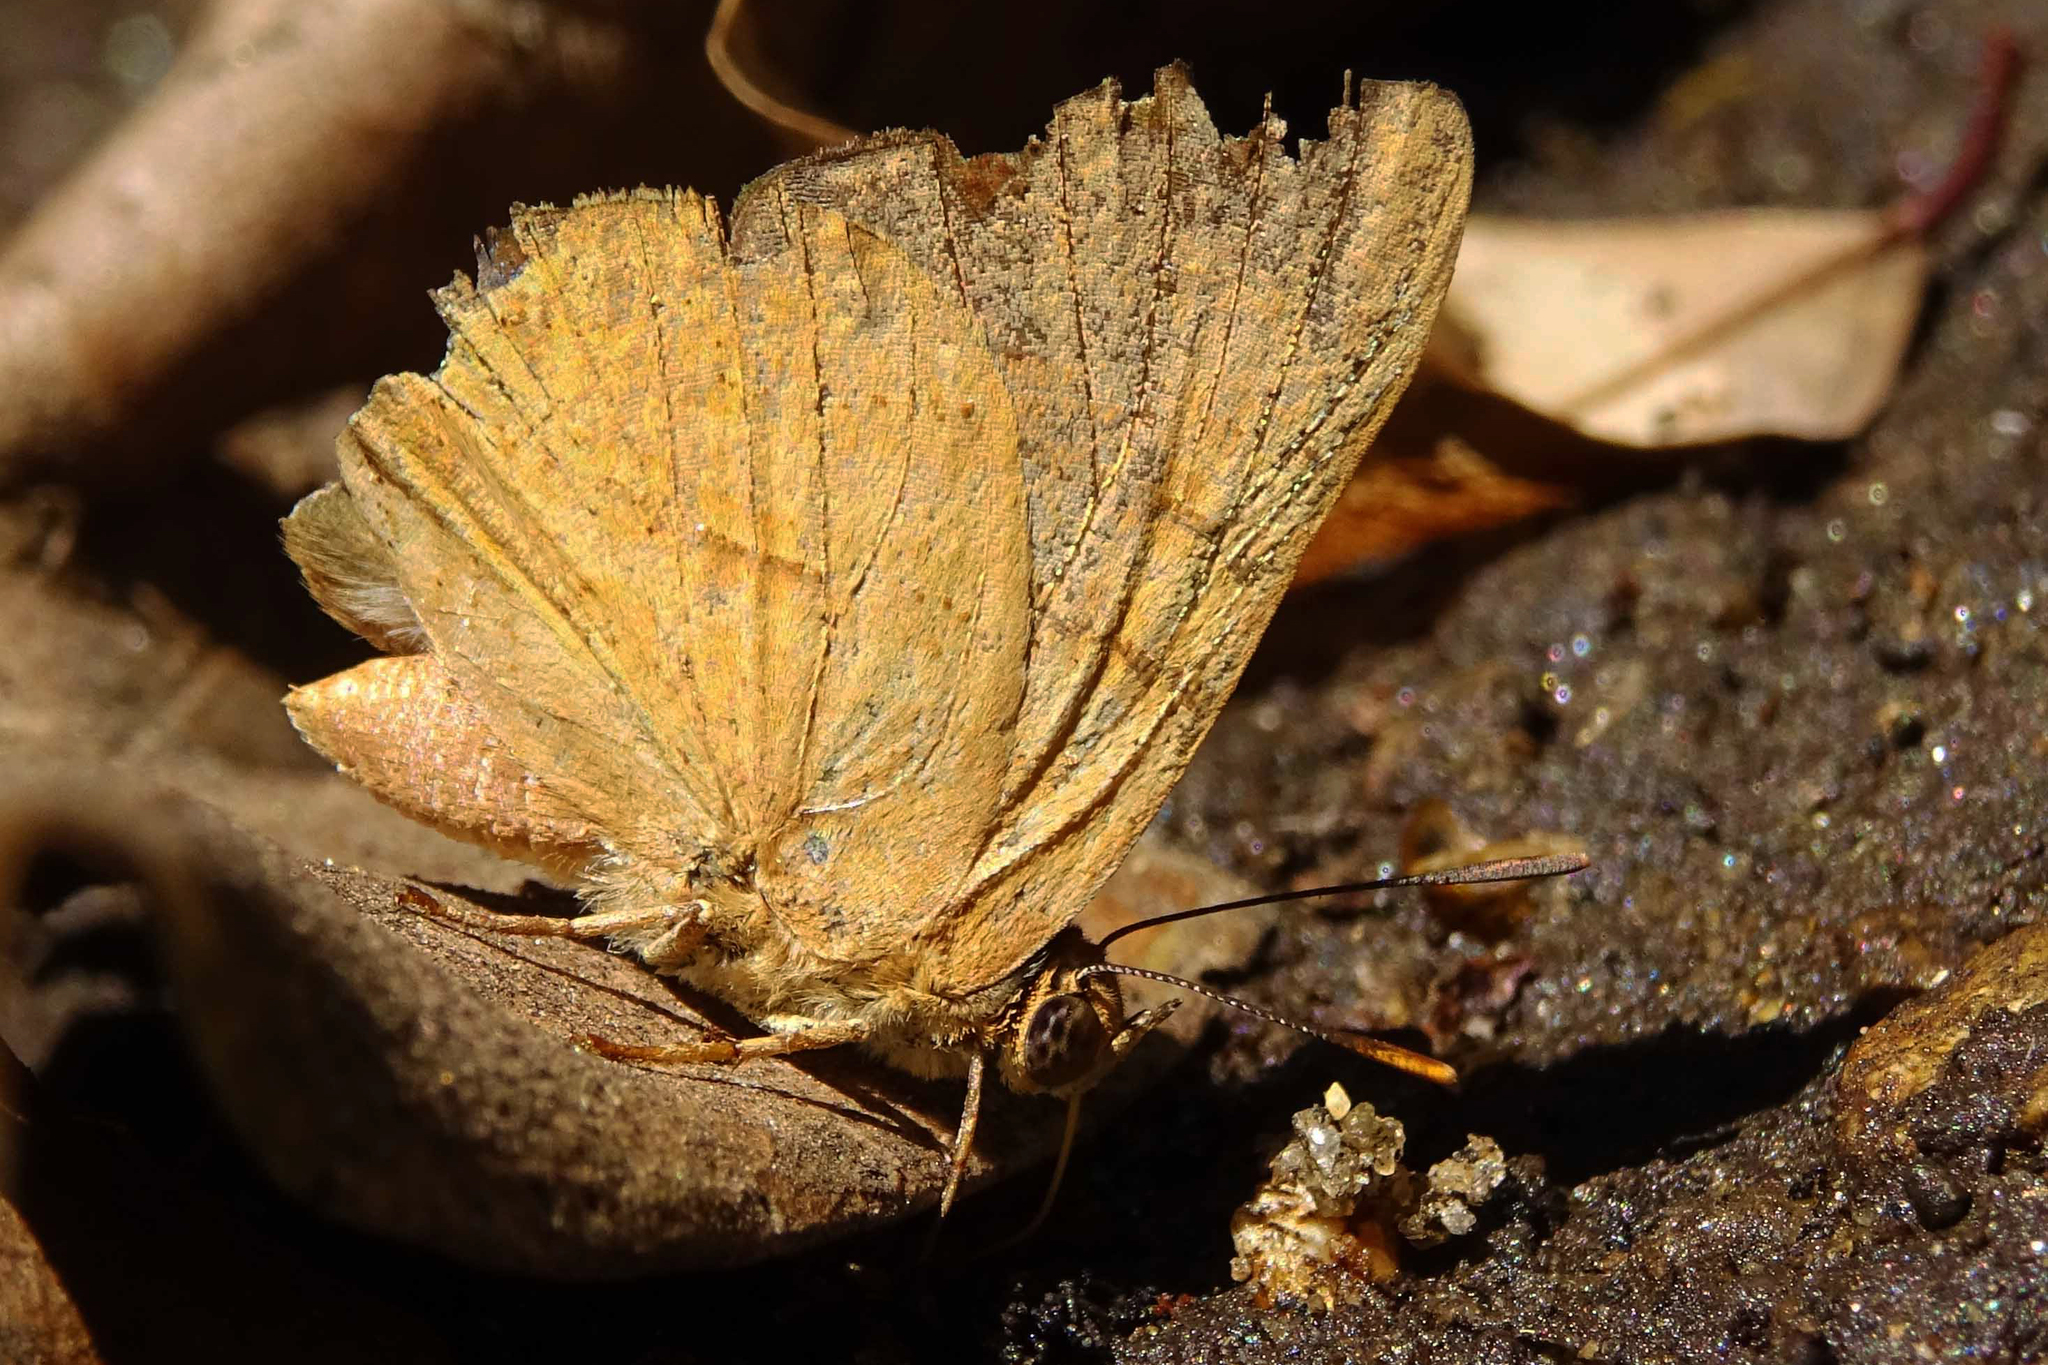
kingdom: Animalia
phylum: Arthropoda
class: Insecta
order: Lepidoptera
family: Lycaenidae
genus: Cigaritis
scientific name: Cigaritis
